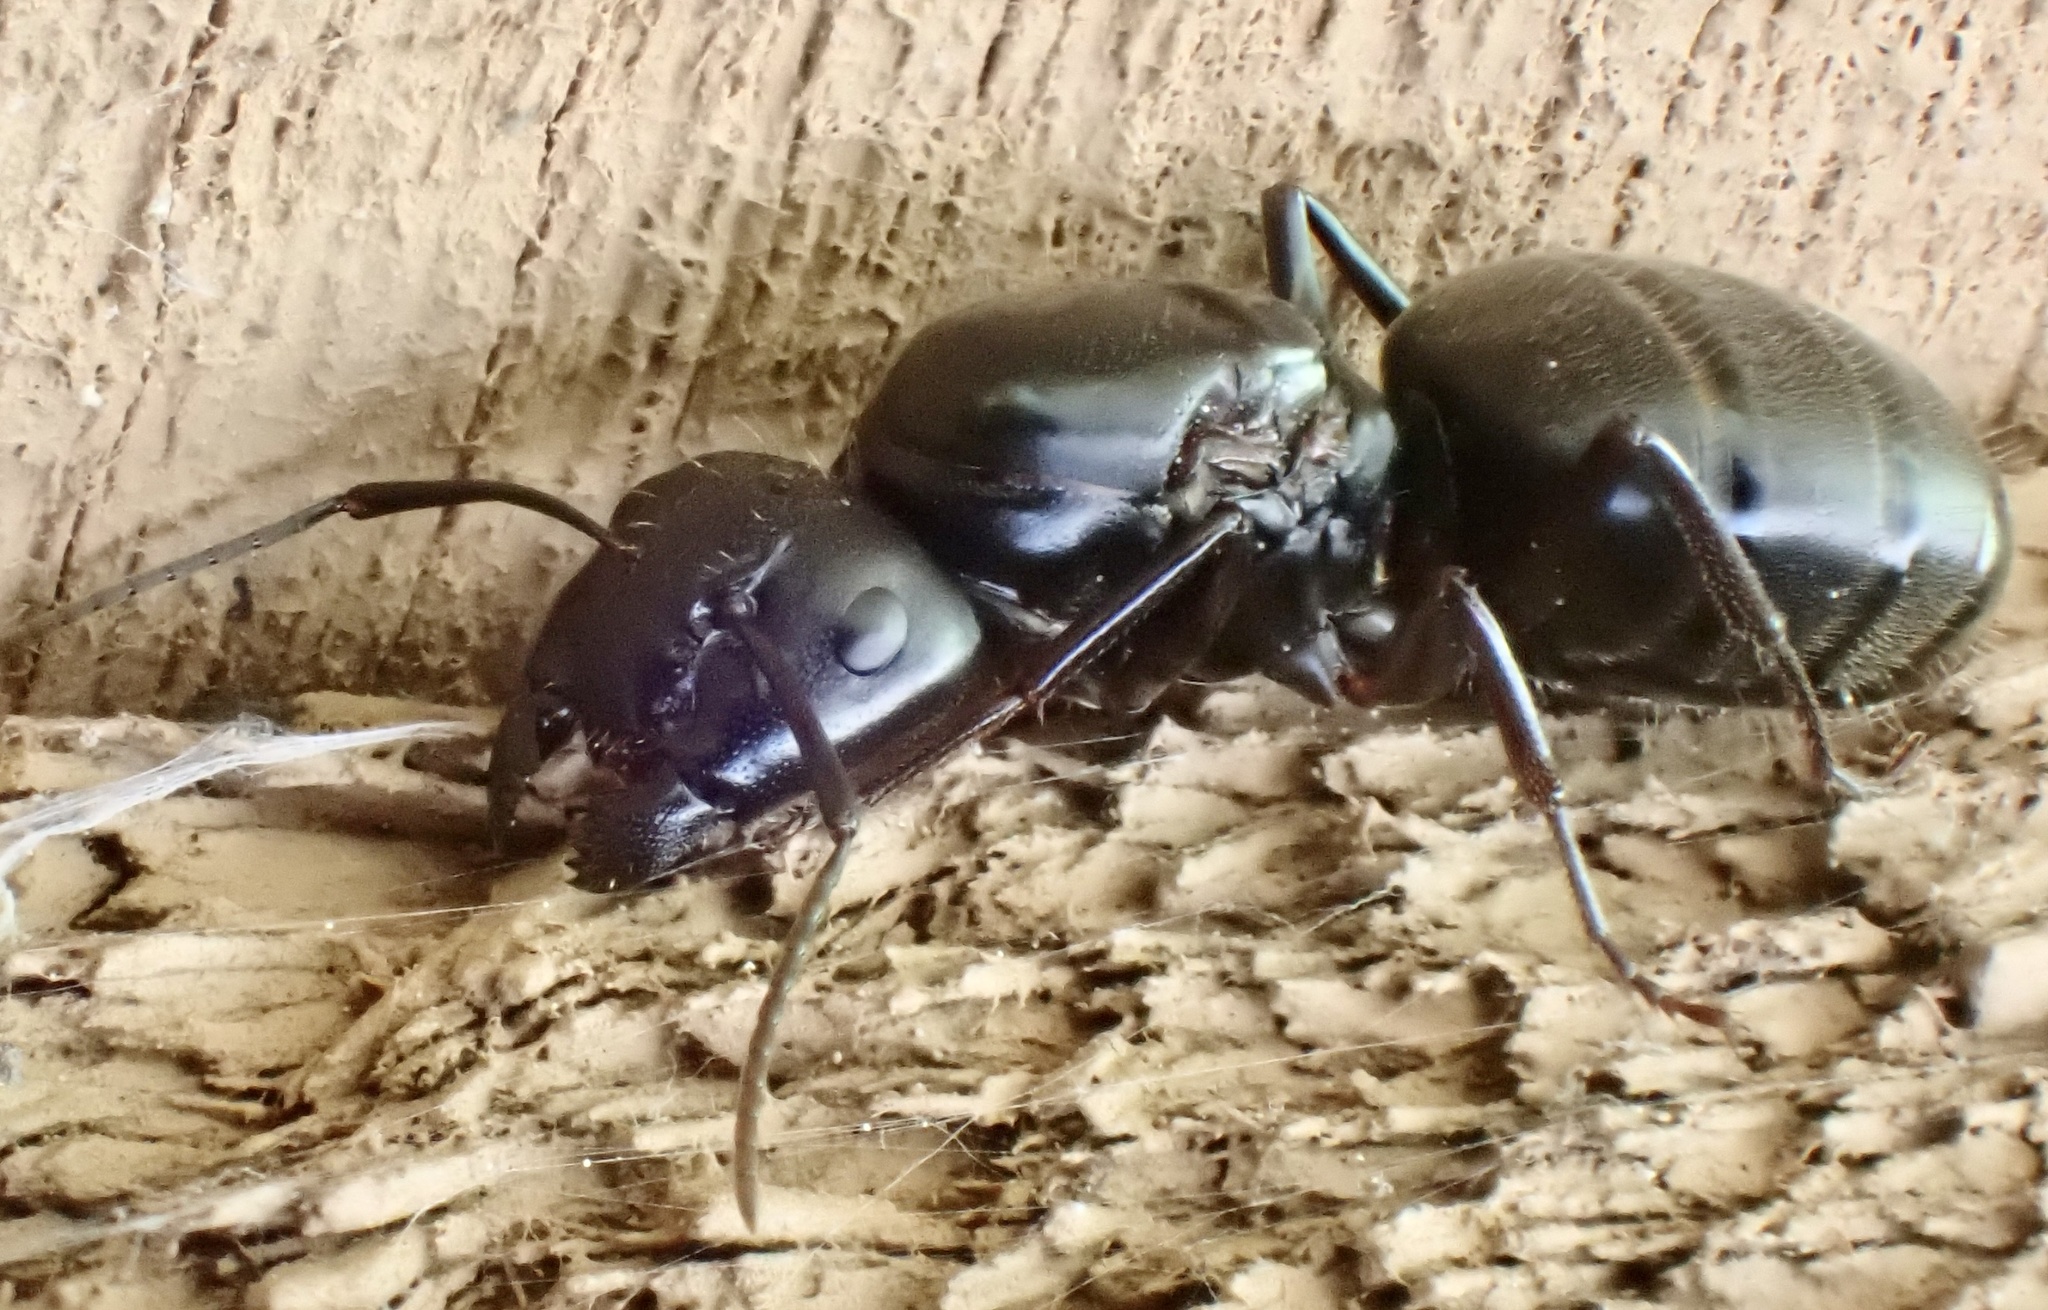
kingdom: Animalia
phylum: Arthropoda
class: Insecta
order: Hymenoptera
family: Formicidae
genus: Camponotus
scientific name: Camponotus pennsylvanicus
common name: Black carpenter ant
